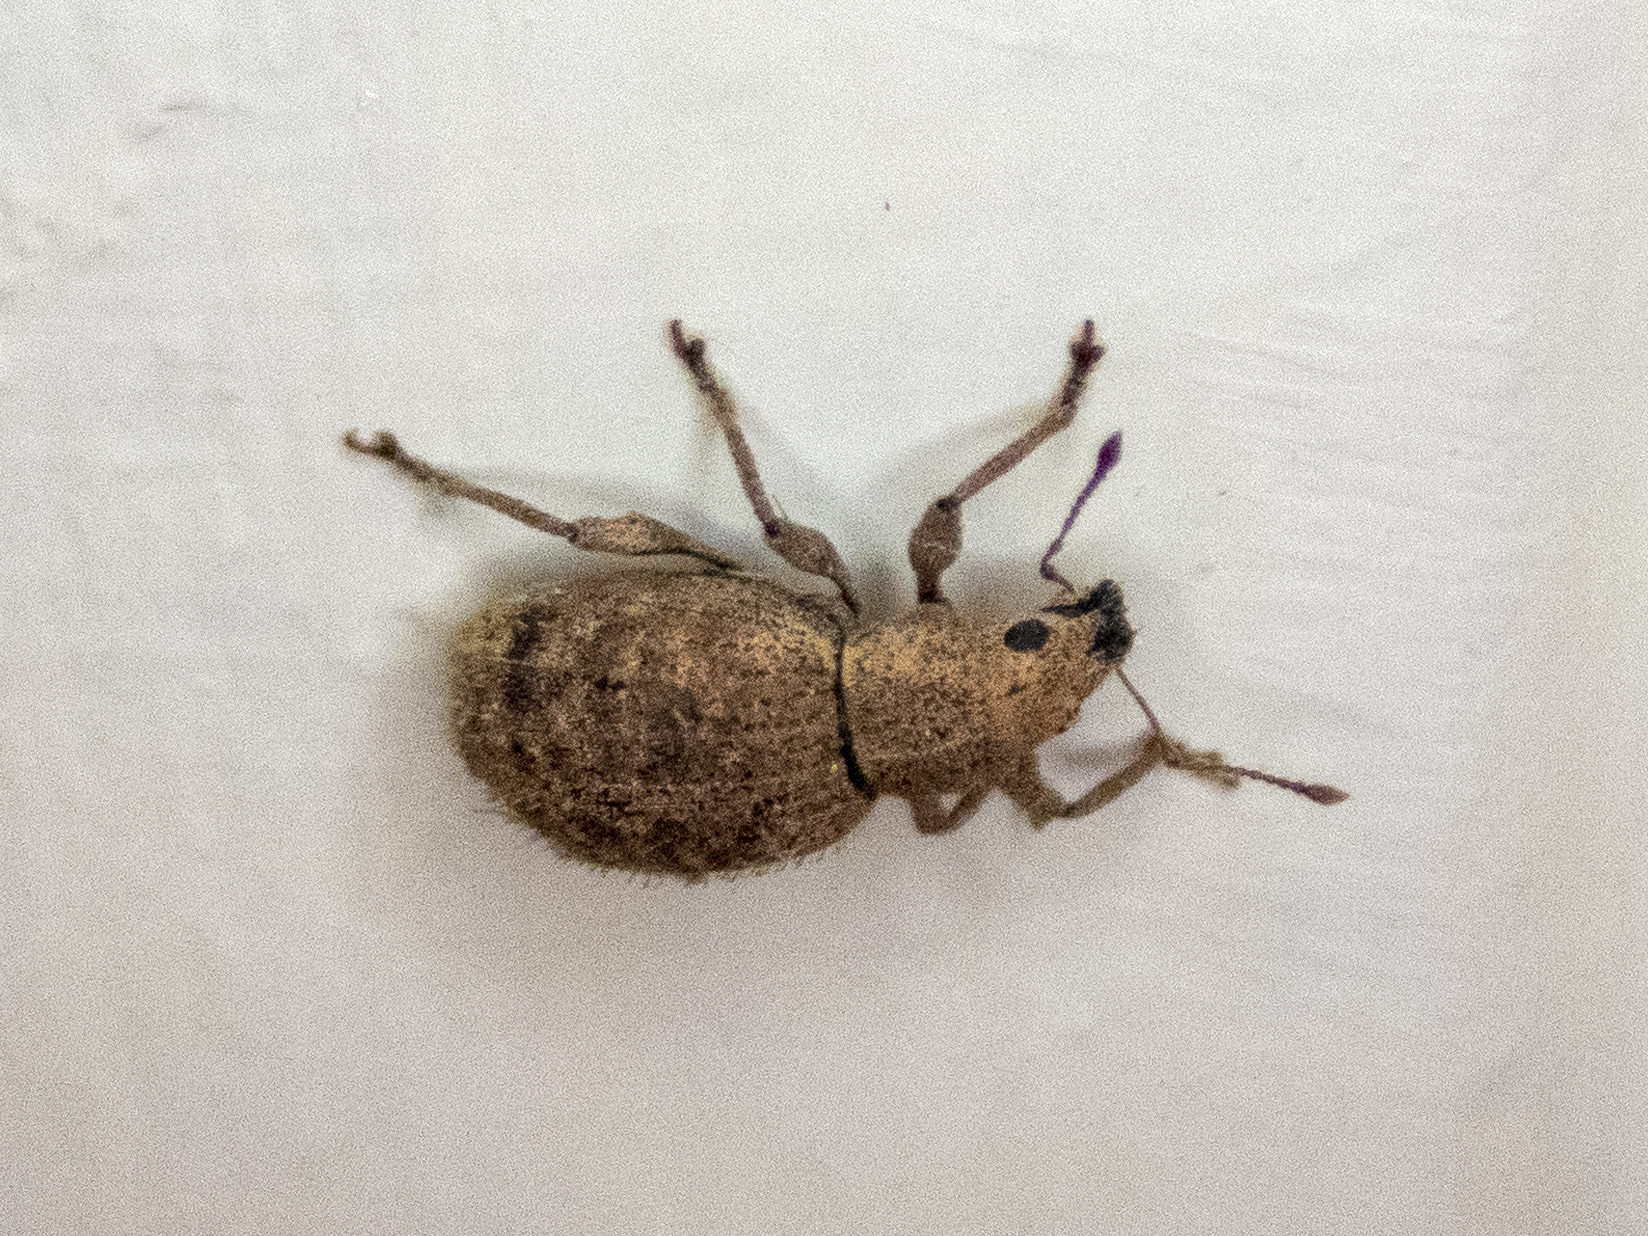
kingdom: Animalia
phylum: Arthropoda
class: Insecta
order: Coleoptera
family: Curculionidae
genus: Sciaphilus
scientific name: Sciaphilus asperatus
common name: Weevil
